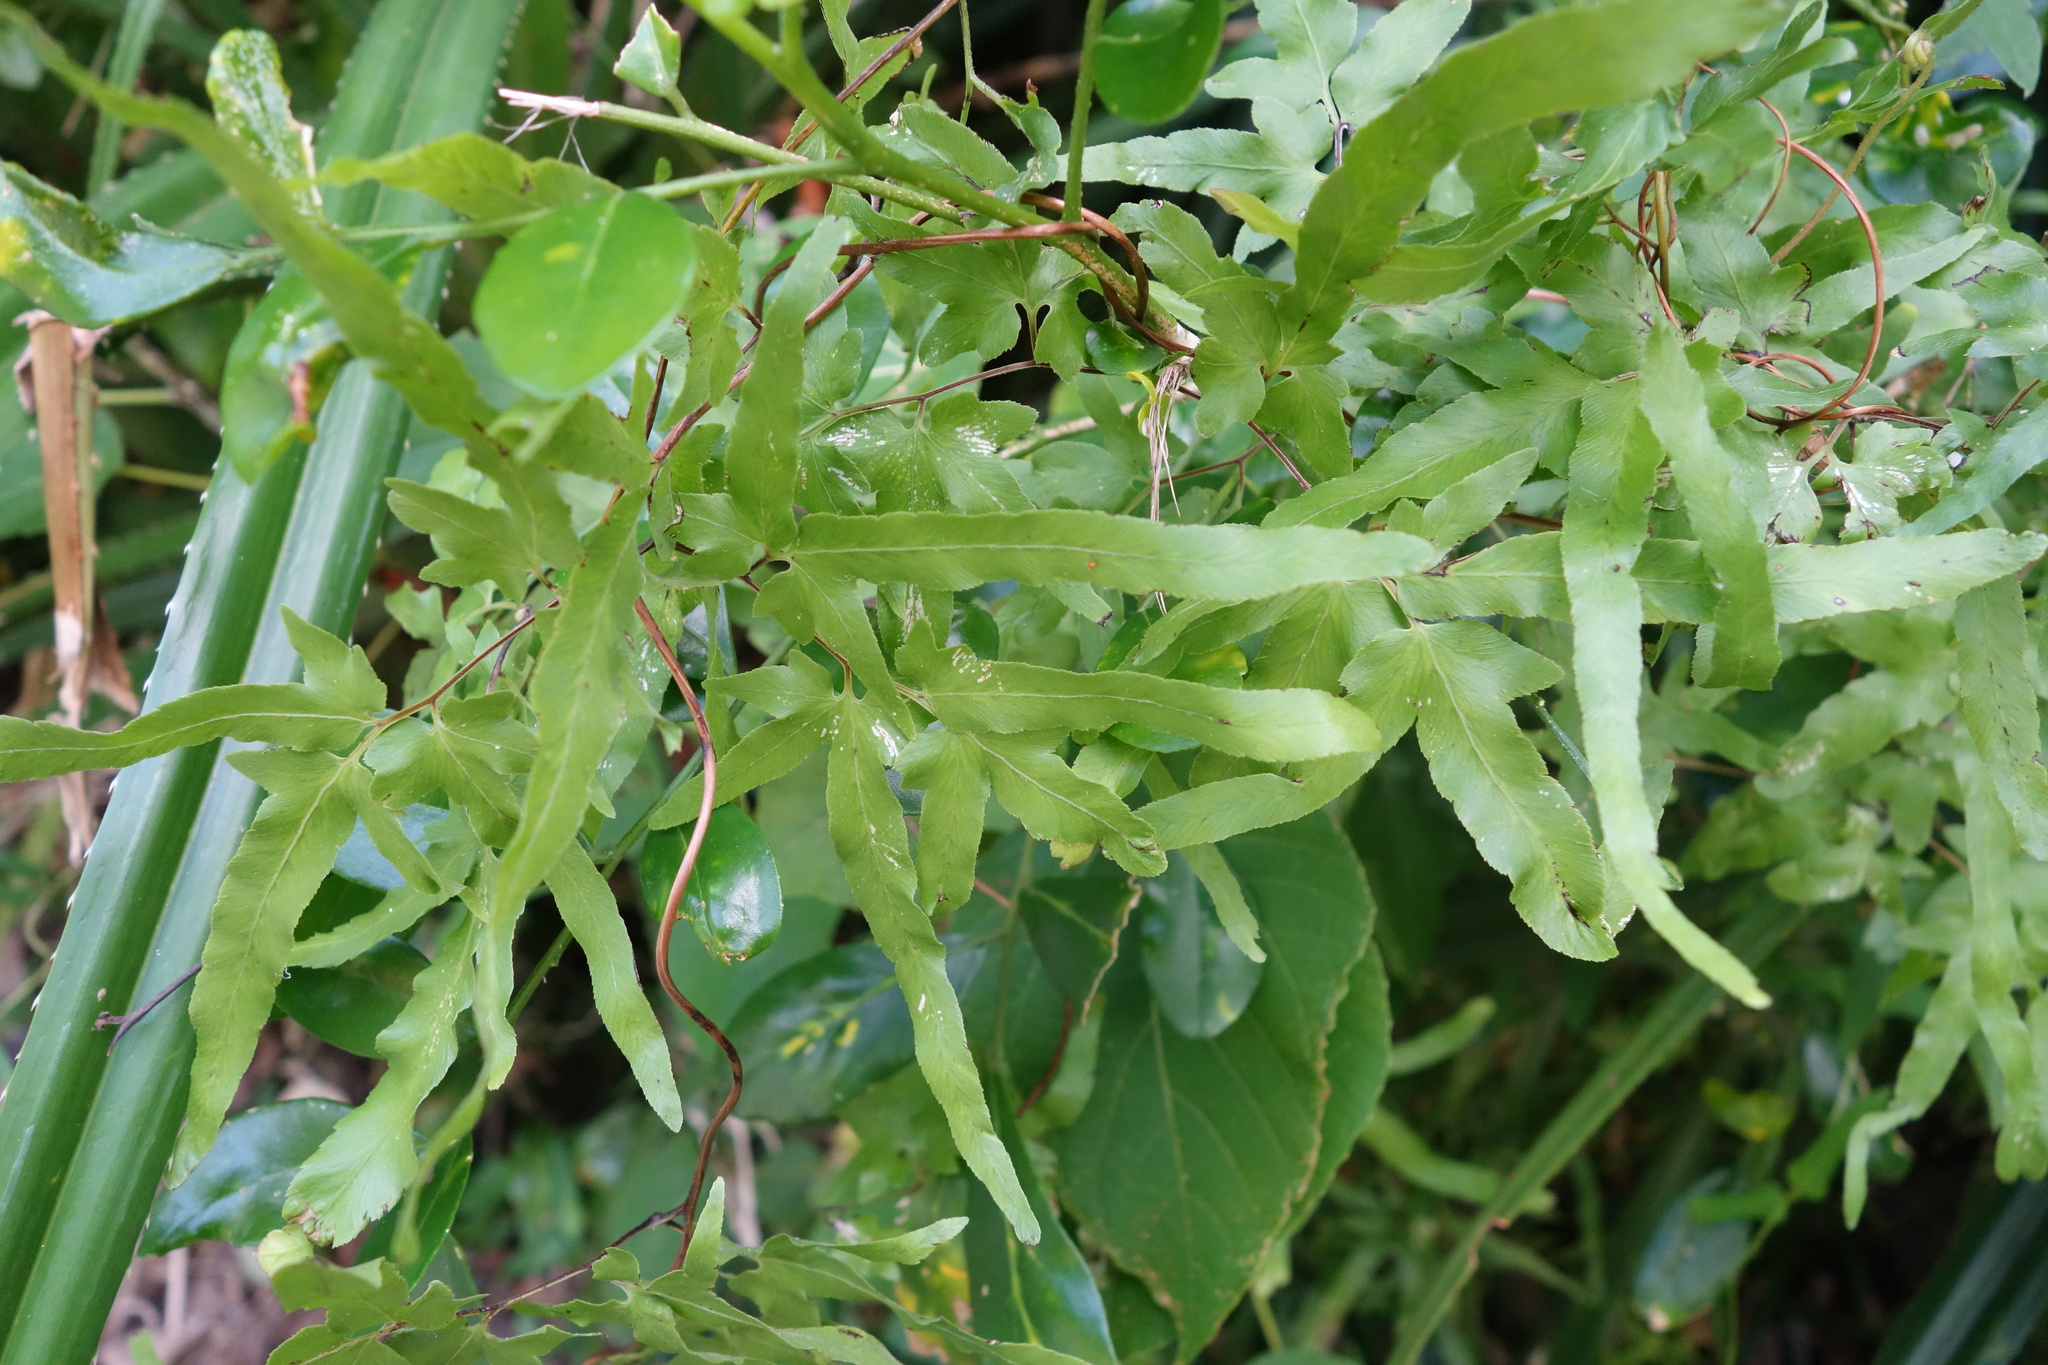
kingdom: Plantae
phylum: Tracheophyta
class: Polypodiopsida
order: Schizaeales
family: Lygodiaceae
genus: Lygodium
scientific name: Lygodium japonicum
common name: Japanese climbing fern
